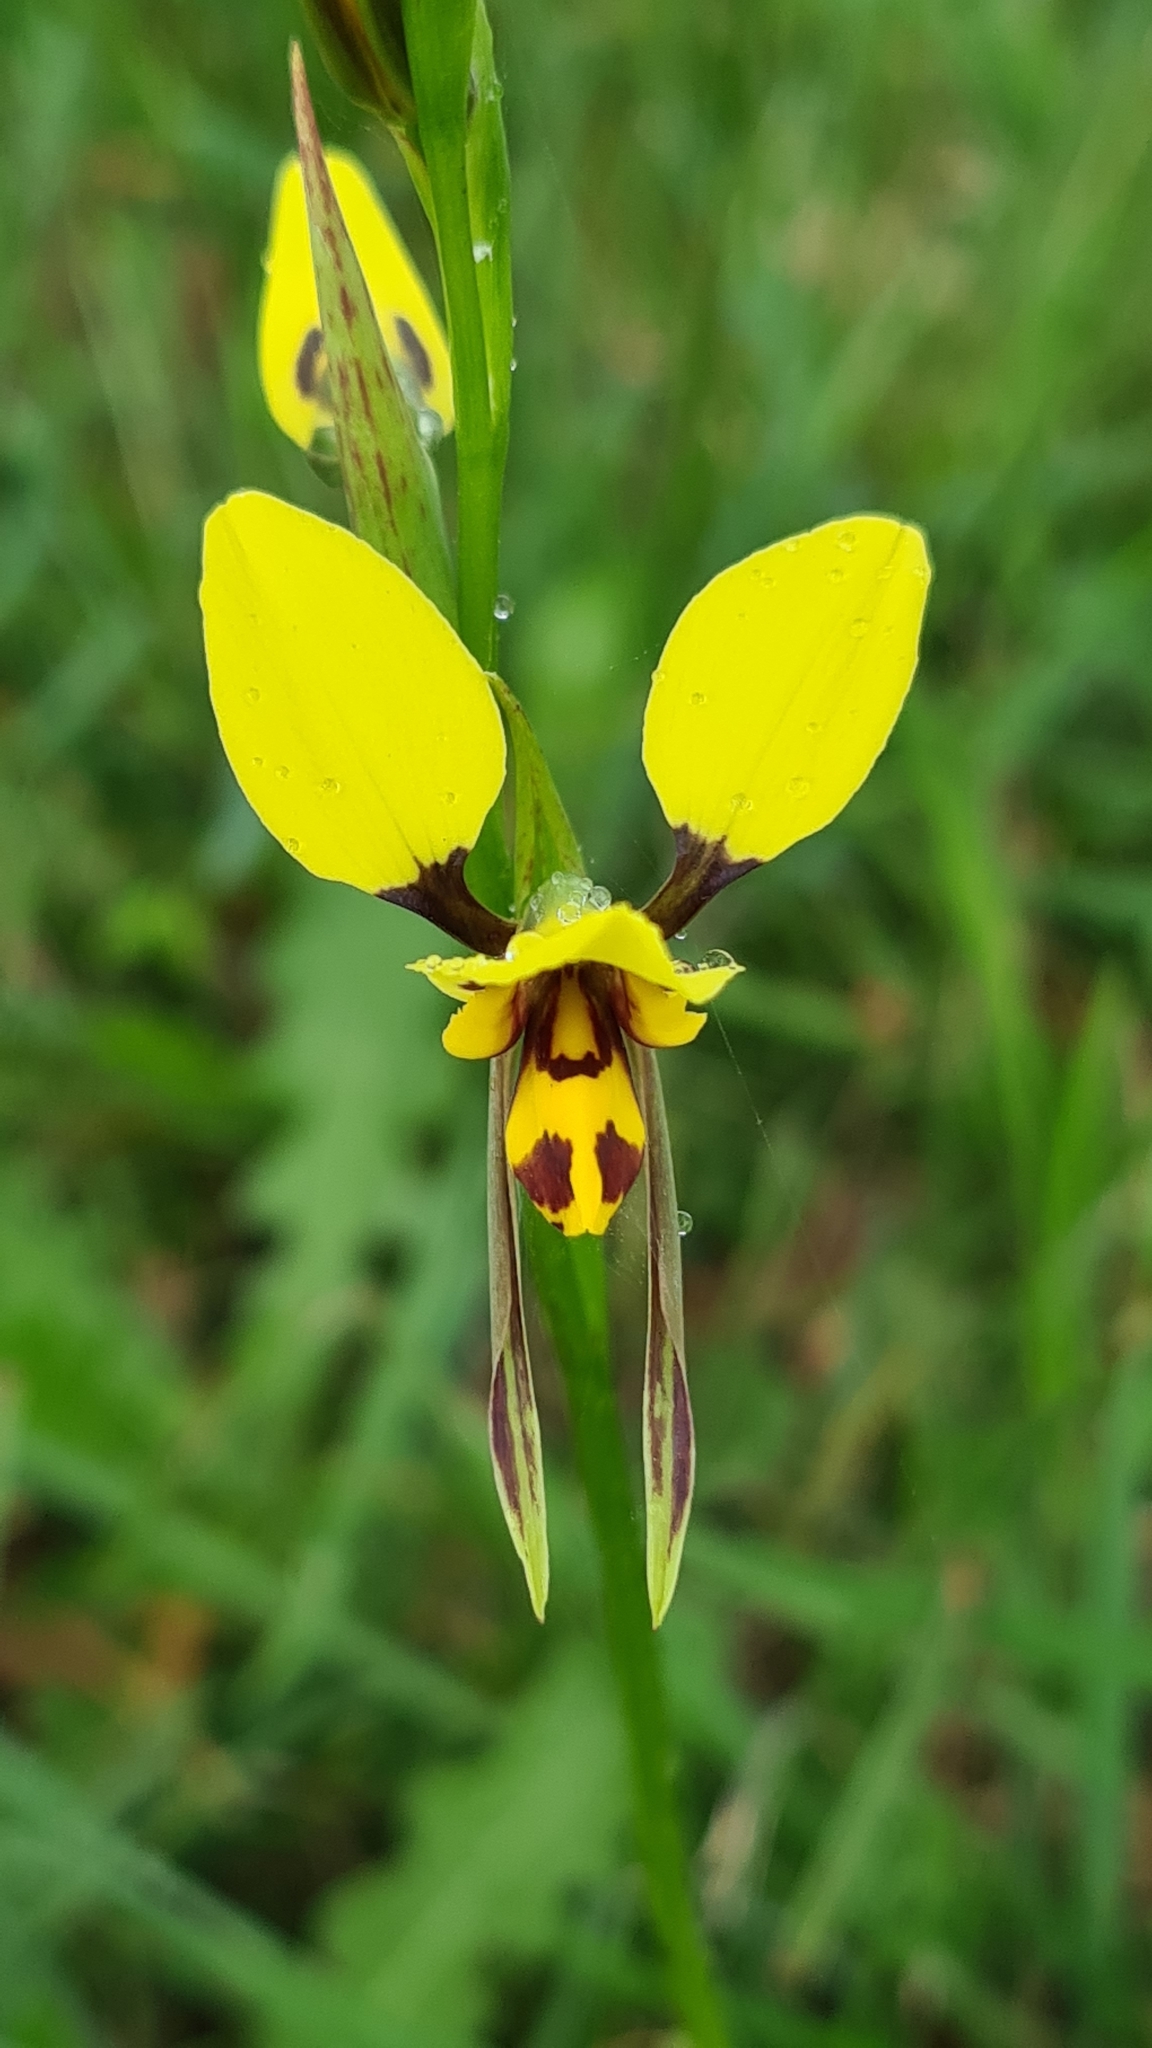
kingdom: Plantae
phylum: Tracheophyta
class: Liliopsida
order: Asparagales
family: Orchidaceae
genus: Diuris
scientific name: Diuris sulphurea
